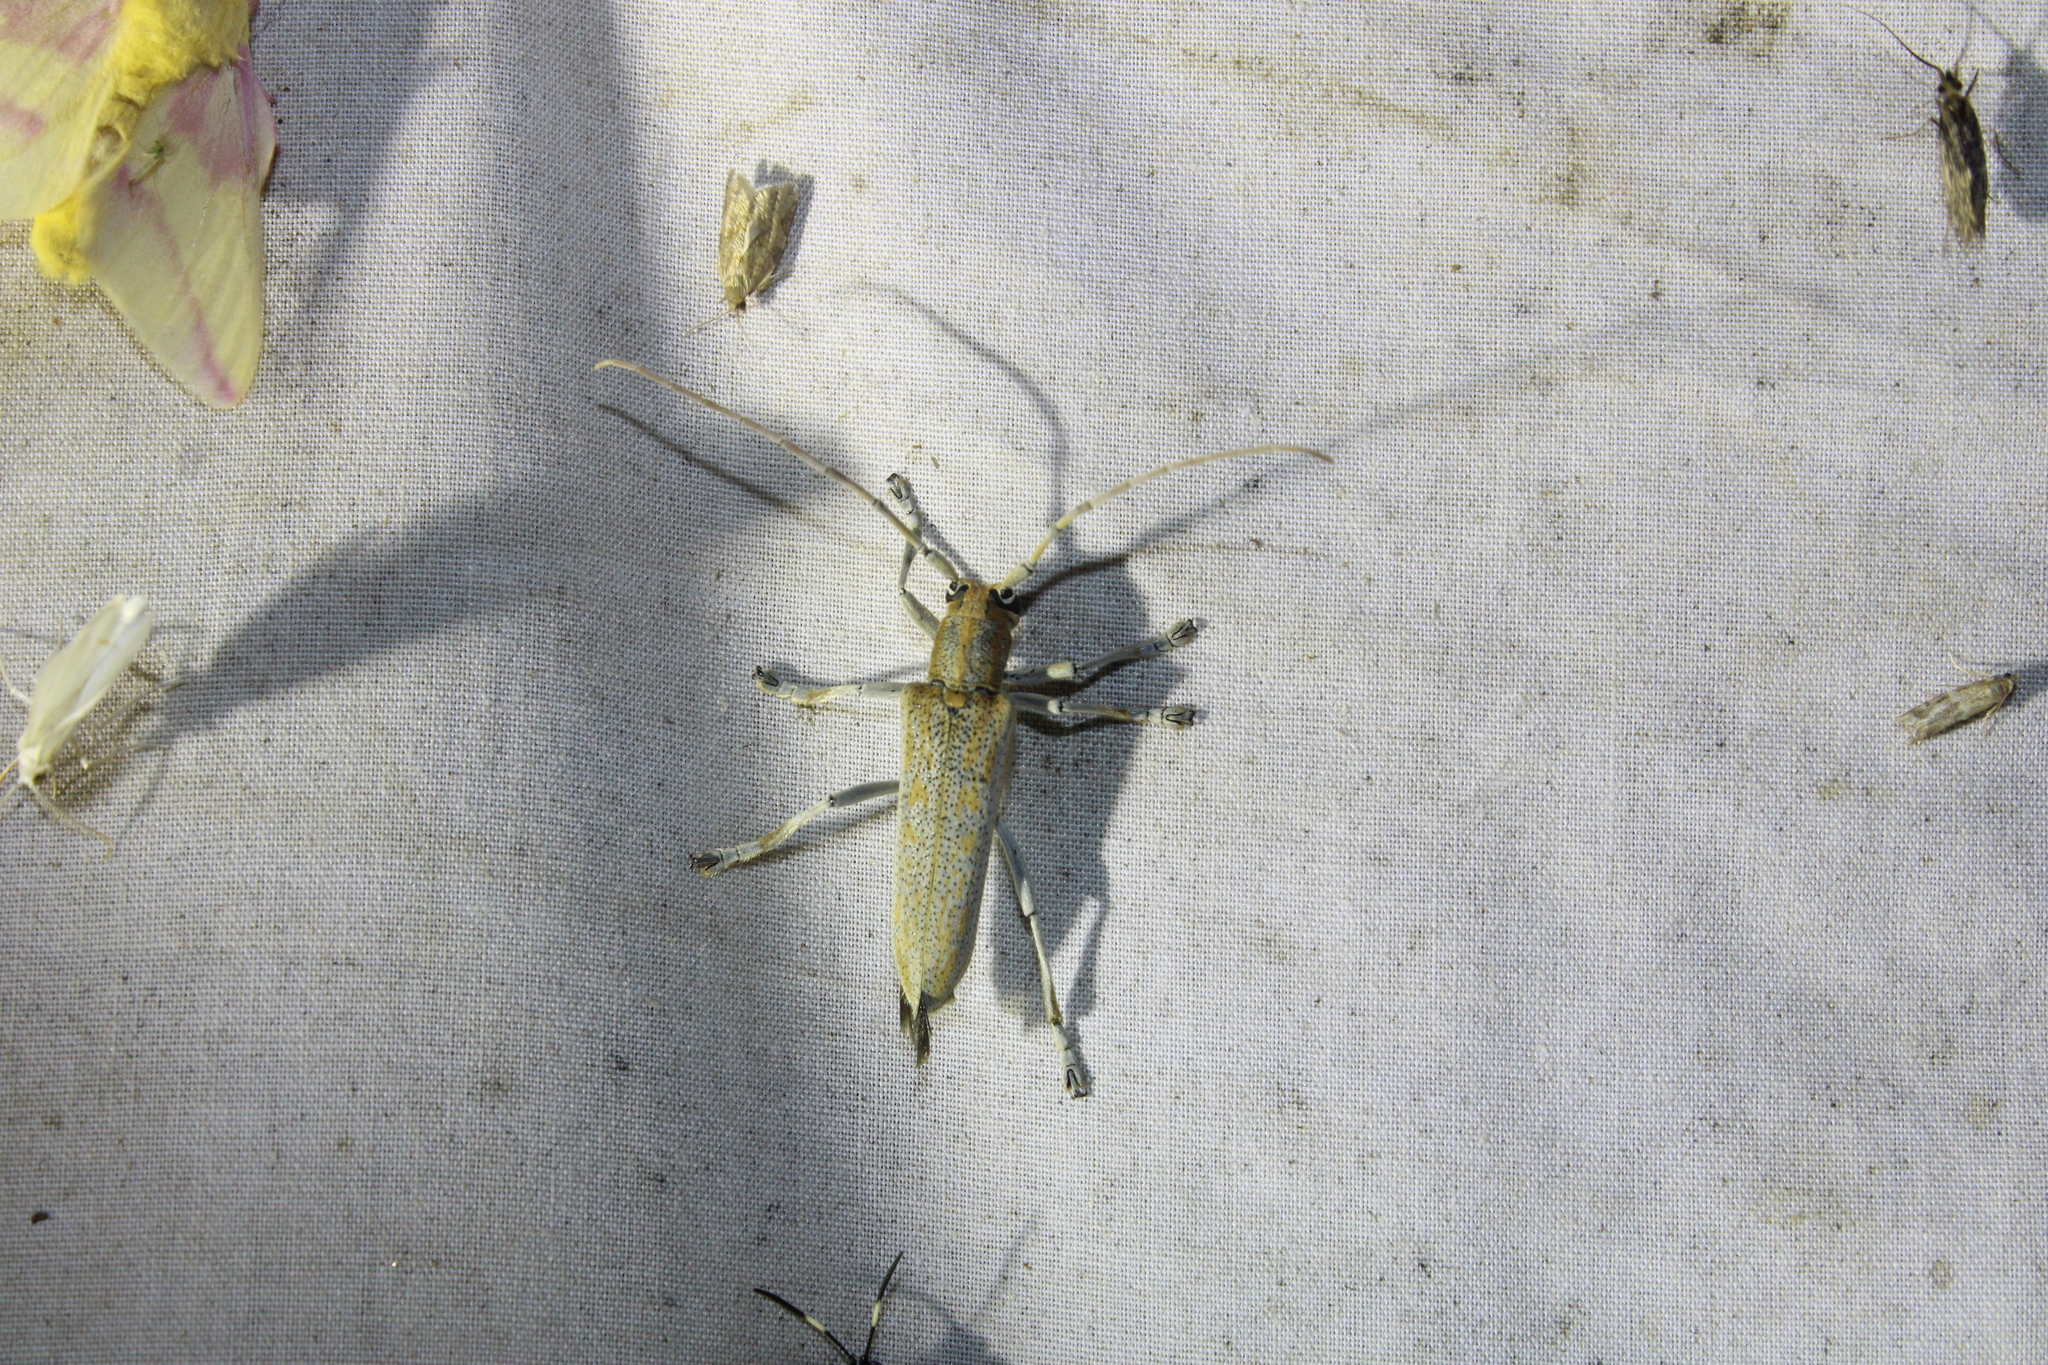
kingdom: Animalia
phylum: Arthropoda
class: Insecta
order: Coleoptera
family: Cerambycidae
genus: Saperda
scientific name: Saperda calcarata
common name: Poplar borer
